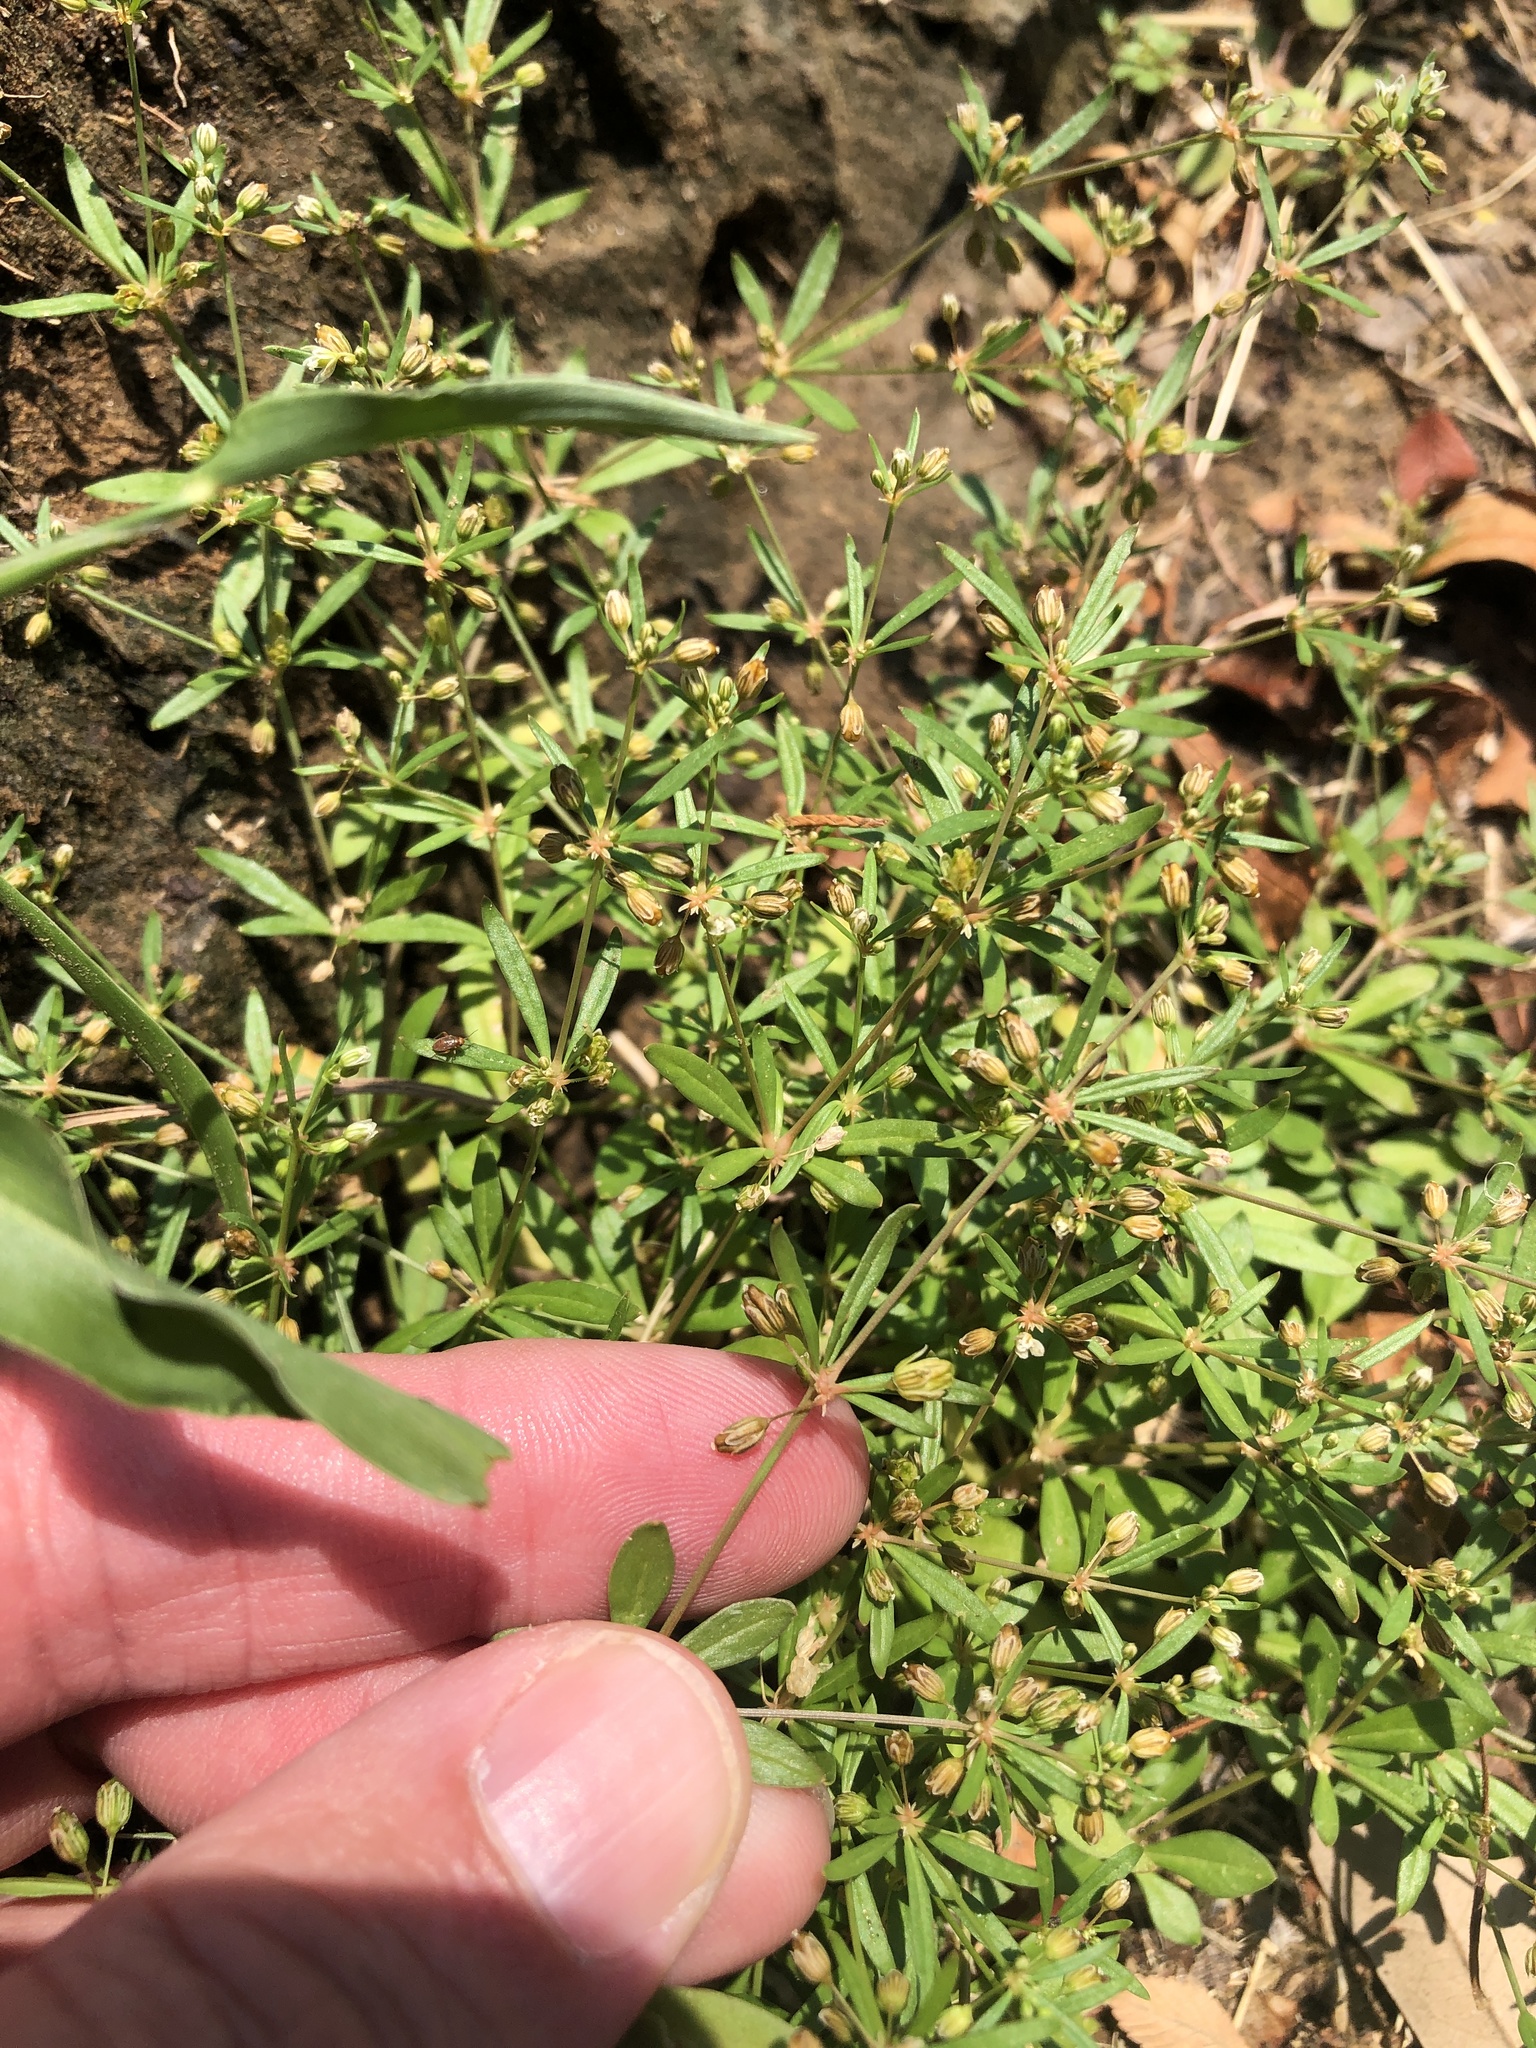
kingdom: Plantae
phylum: Tracheophyta
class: Magnoliopsida
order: Caryophyllales
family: Molluginaceae
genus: Mollugo
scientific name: Mollugo verticillata
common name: Green carpetweed
